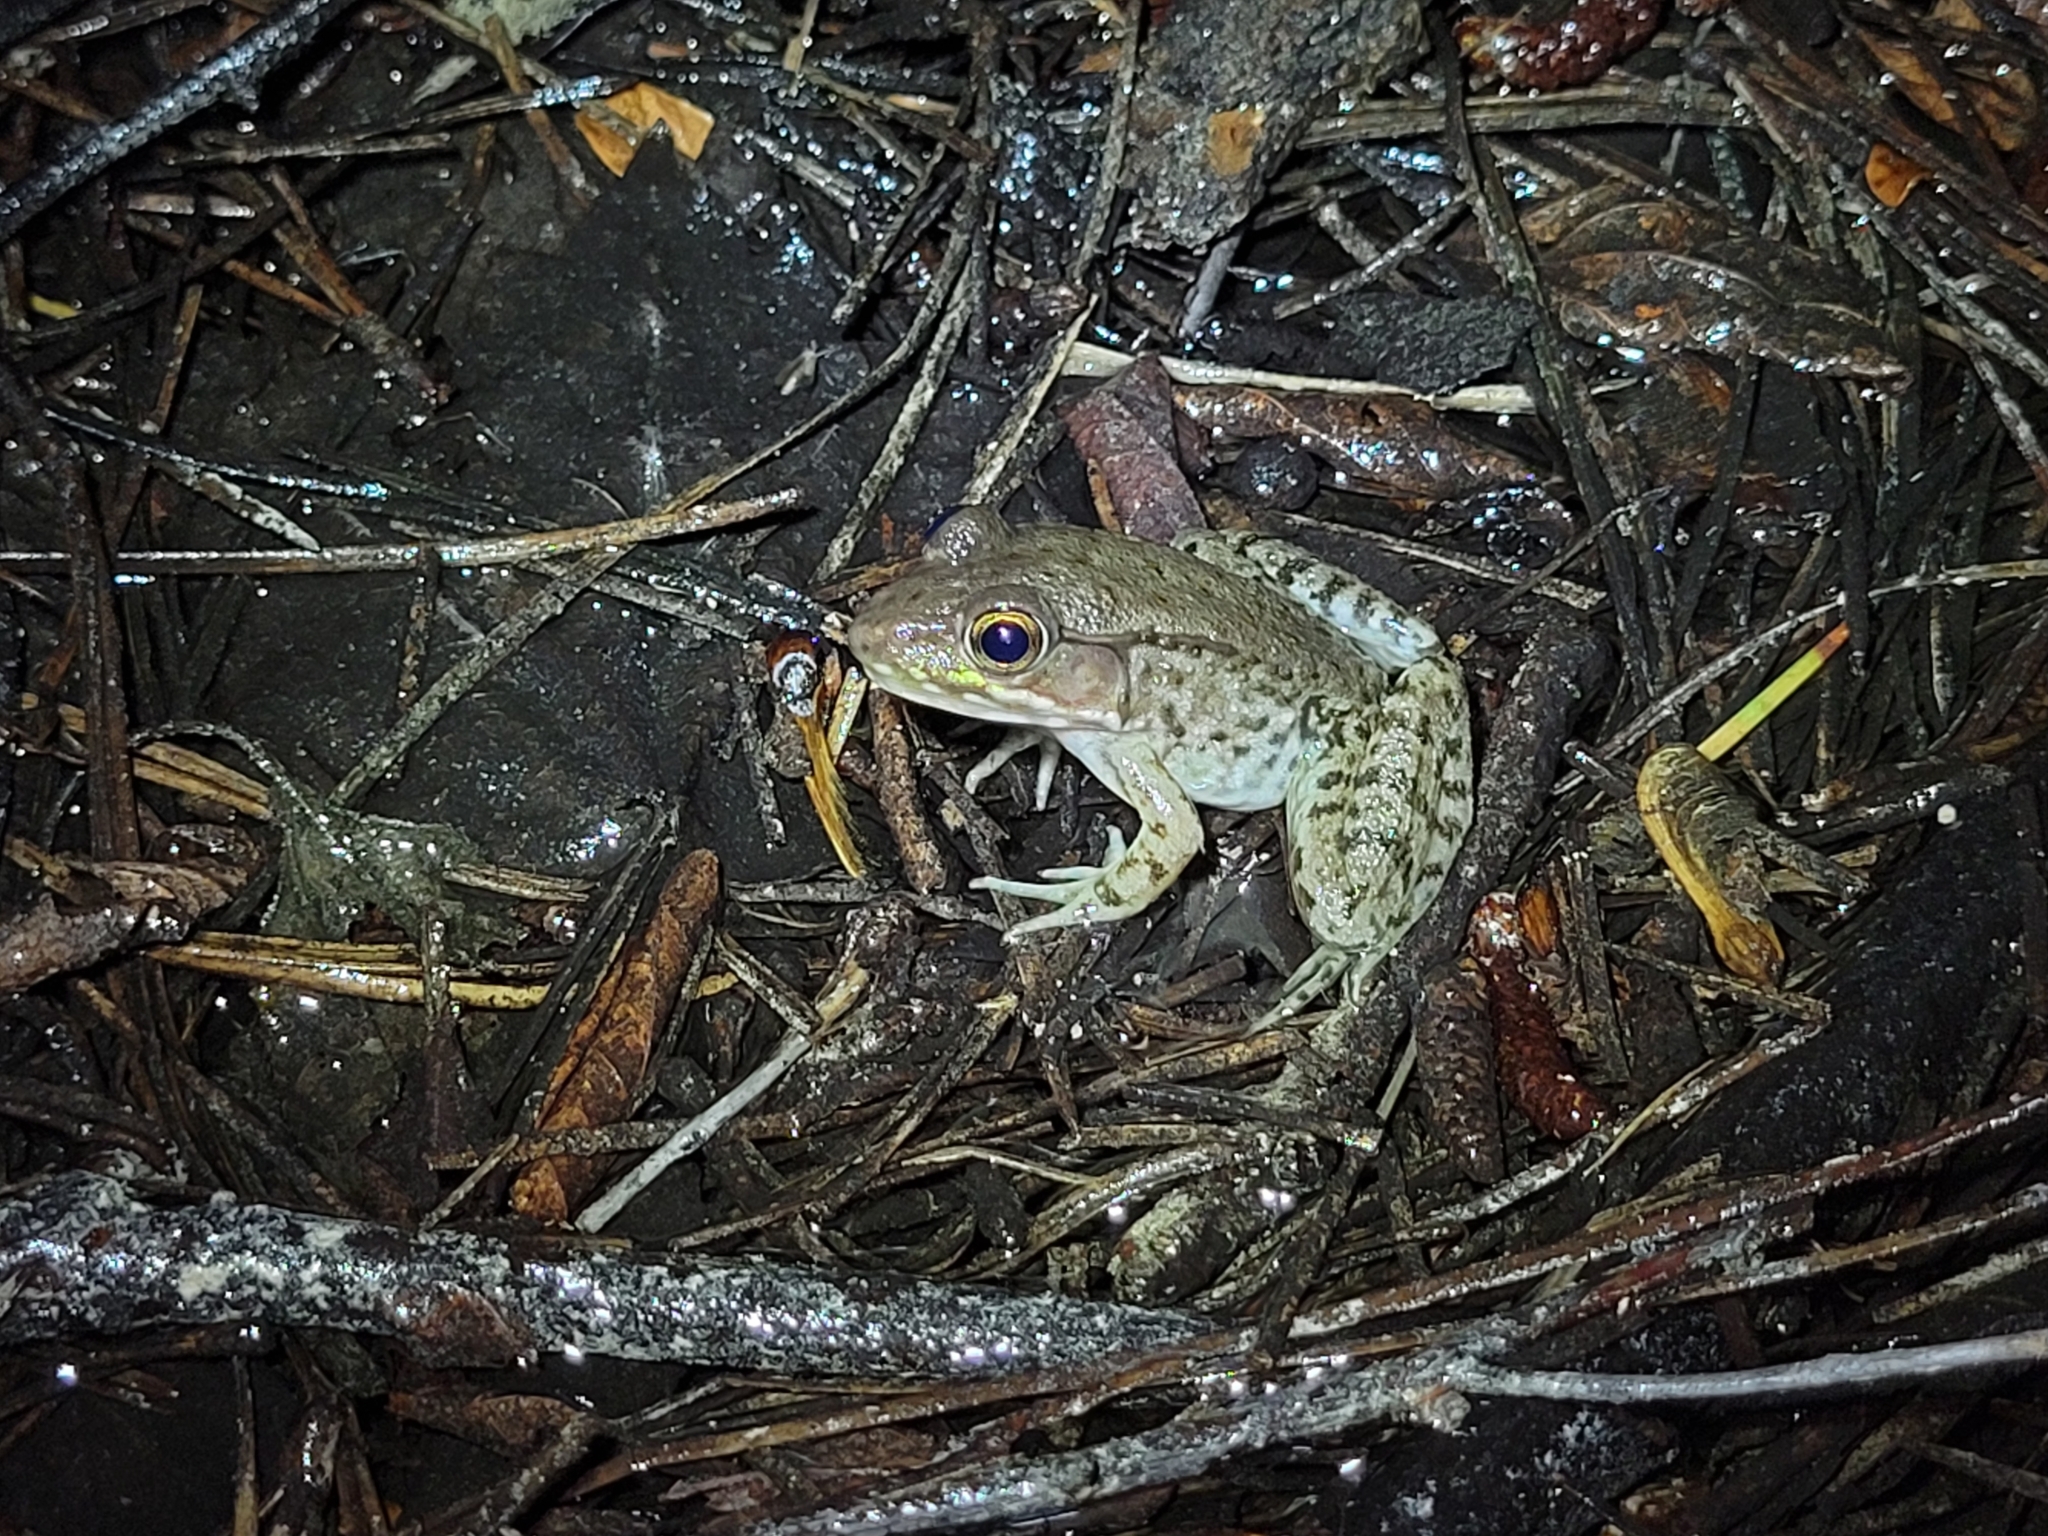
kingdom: Animalia
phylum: Chordata
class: Amphibia
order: Anura
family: Ranidae
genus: Lithobates
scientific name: Lithobates clamitans
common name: Green frog
